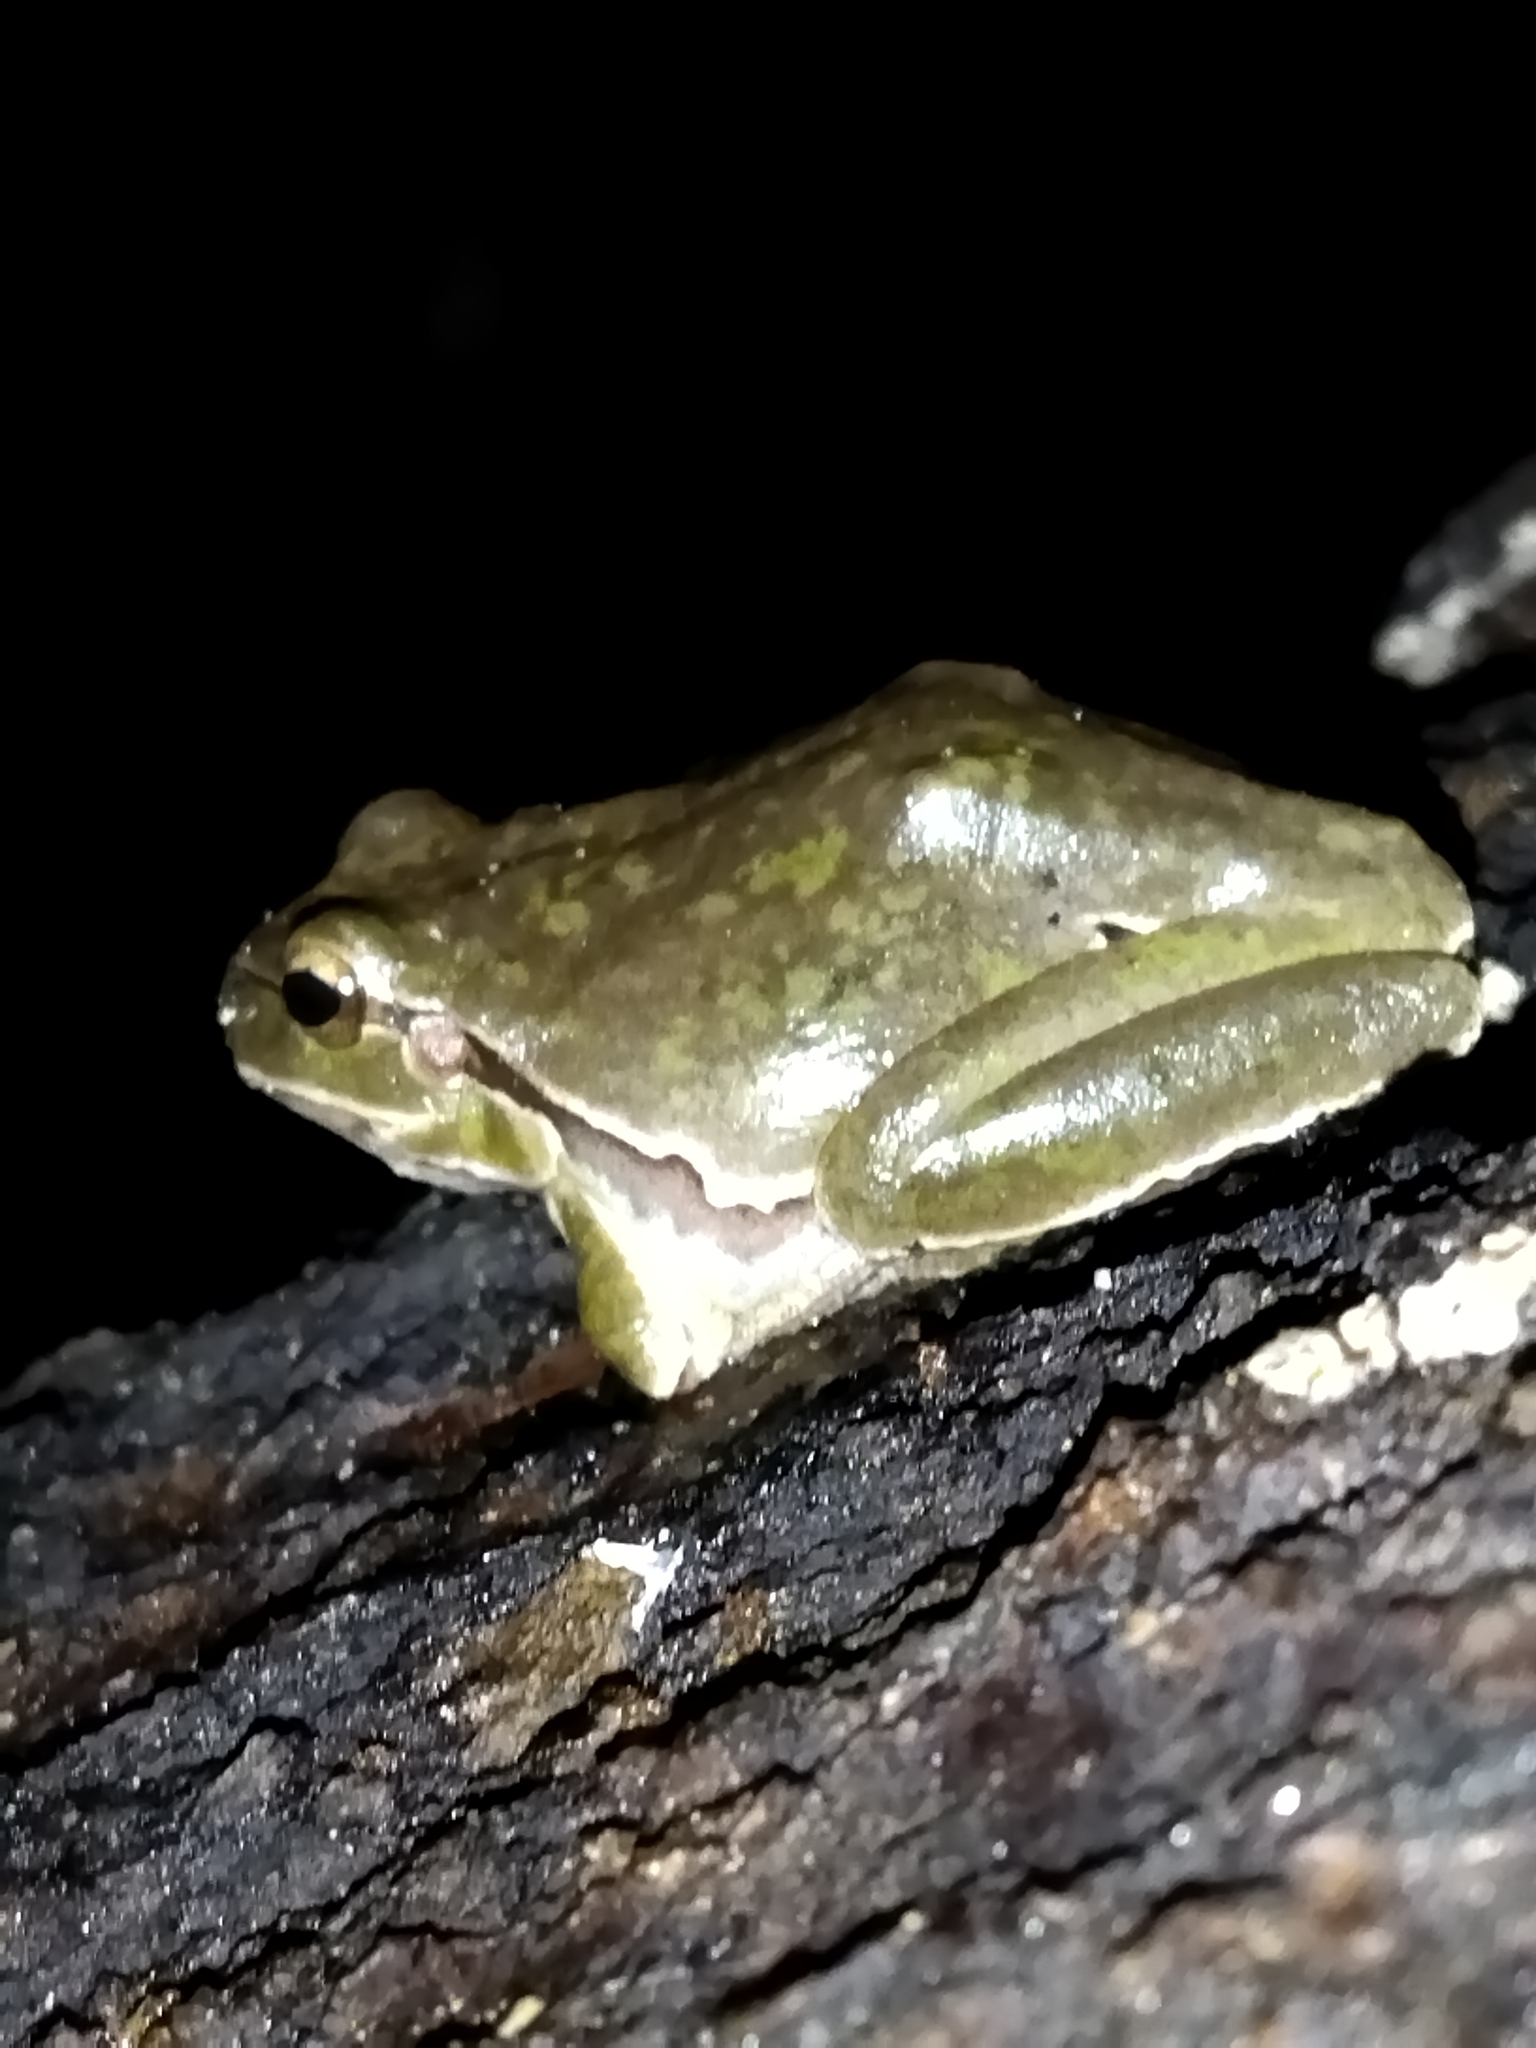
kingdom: Animalia
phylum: Chordata
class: Amphibia
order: Anura
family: Hylidae
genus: Hyla
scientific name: Hyla orientalis
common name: Caucasian treefrog
